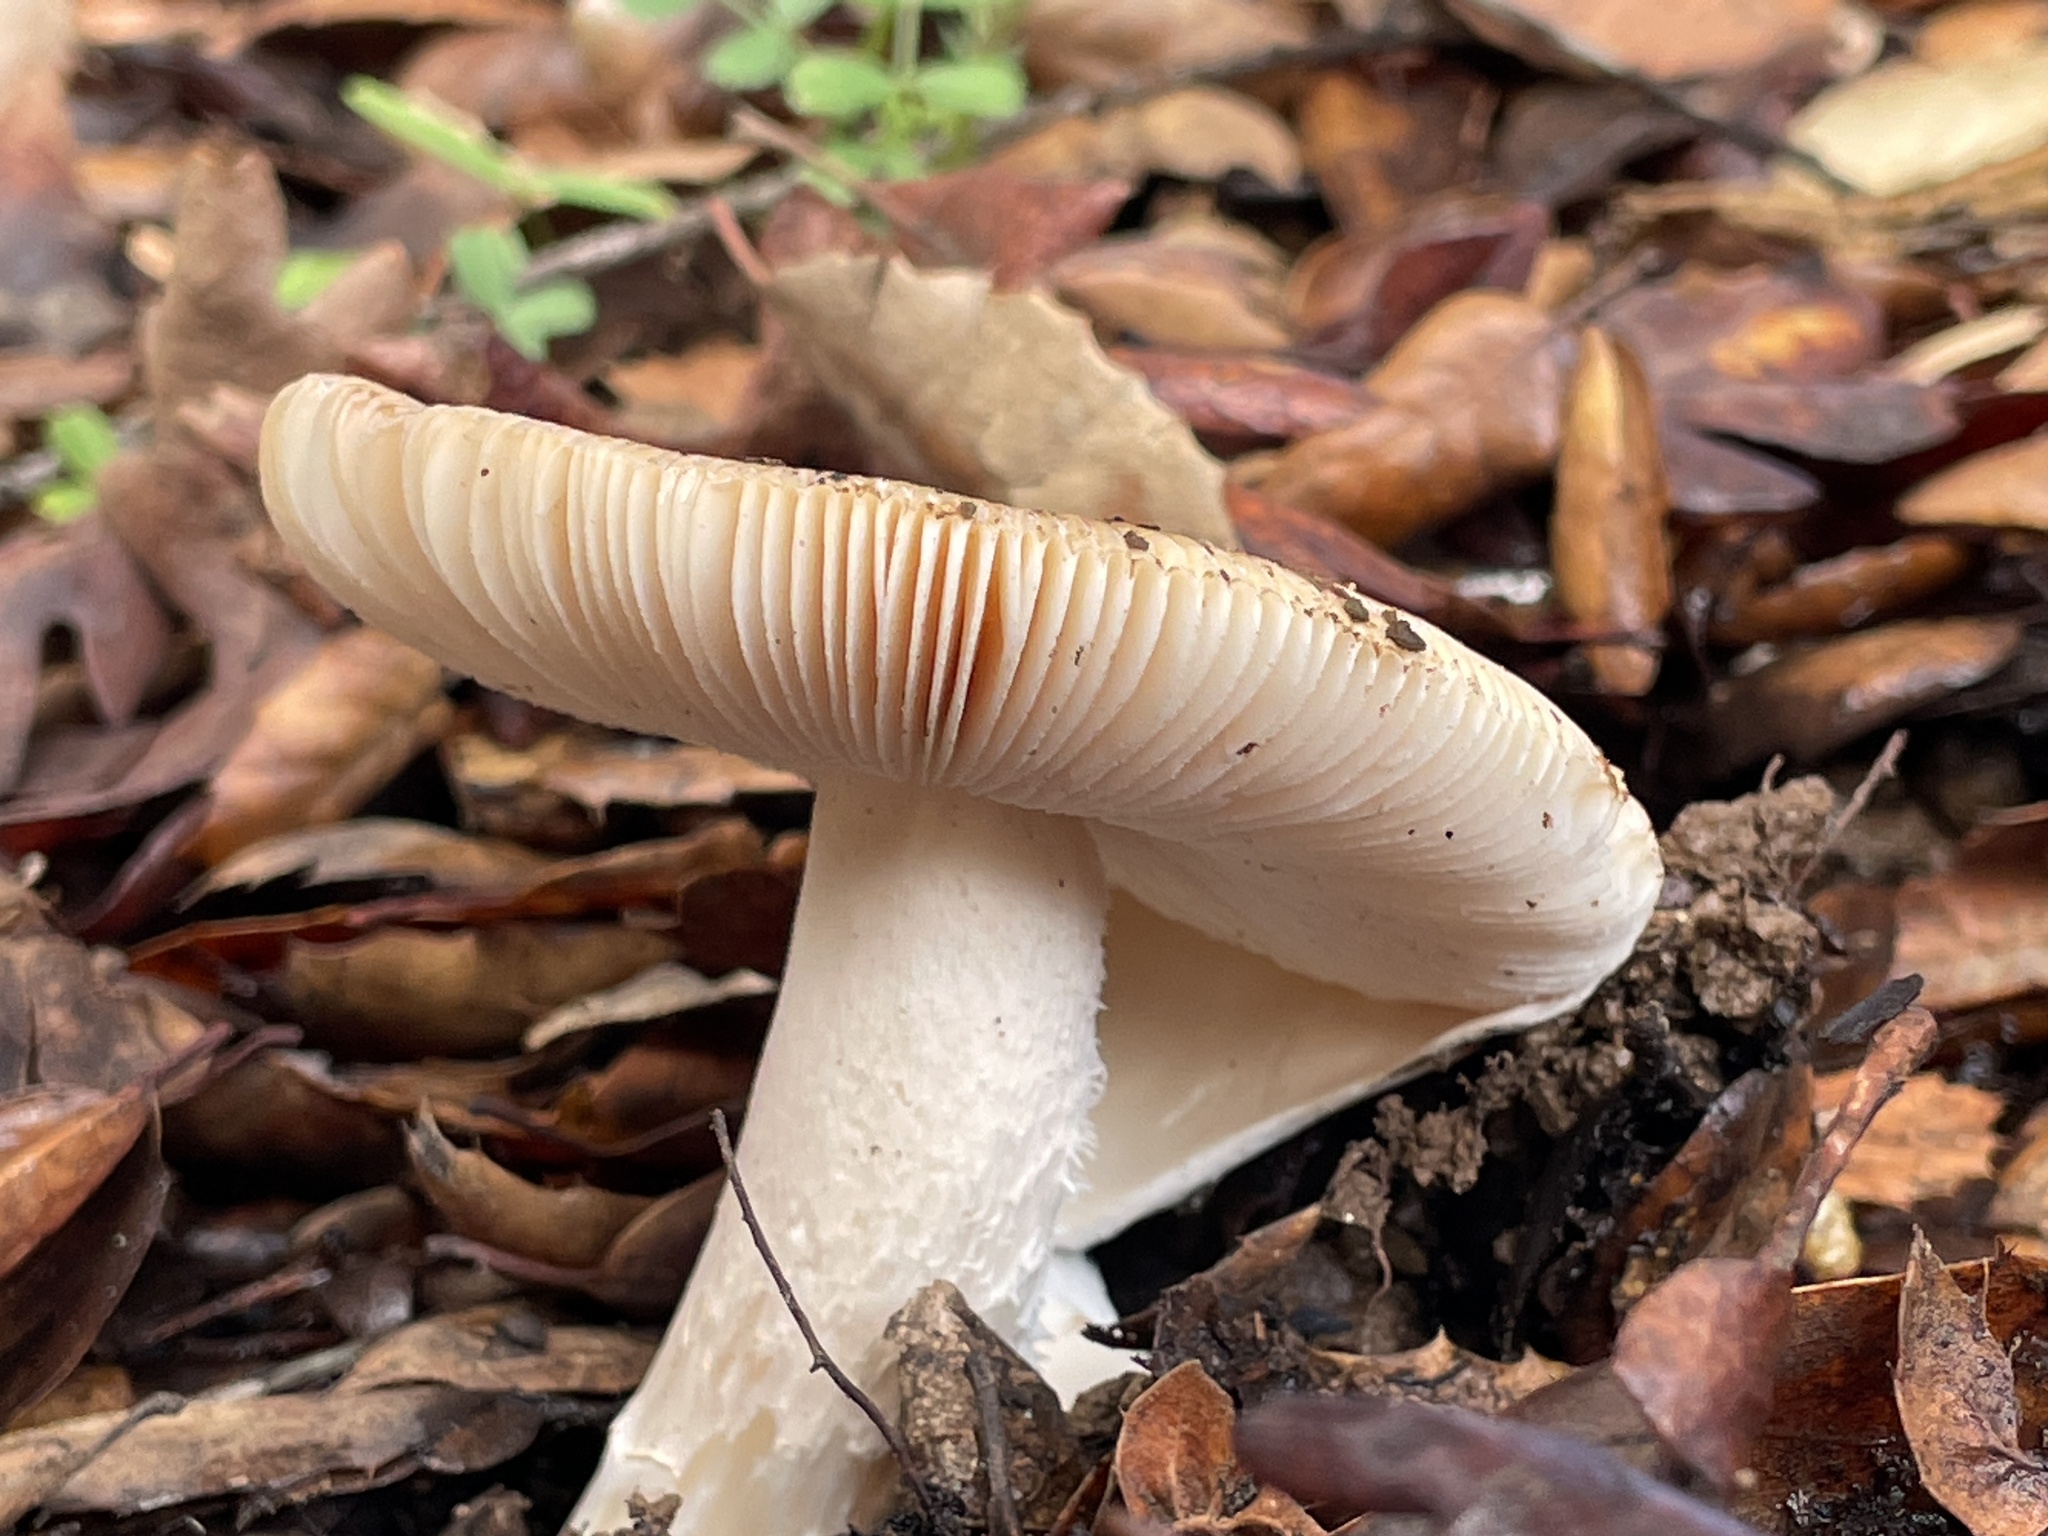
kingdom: Fungi
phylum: Basidiomycota
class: Agaricomycetes
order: Agaricales
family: Amanitaceae
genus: Amanita
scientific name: Amanita velosa
